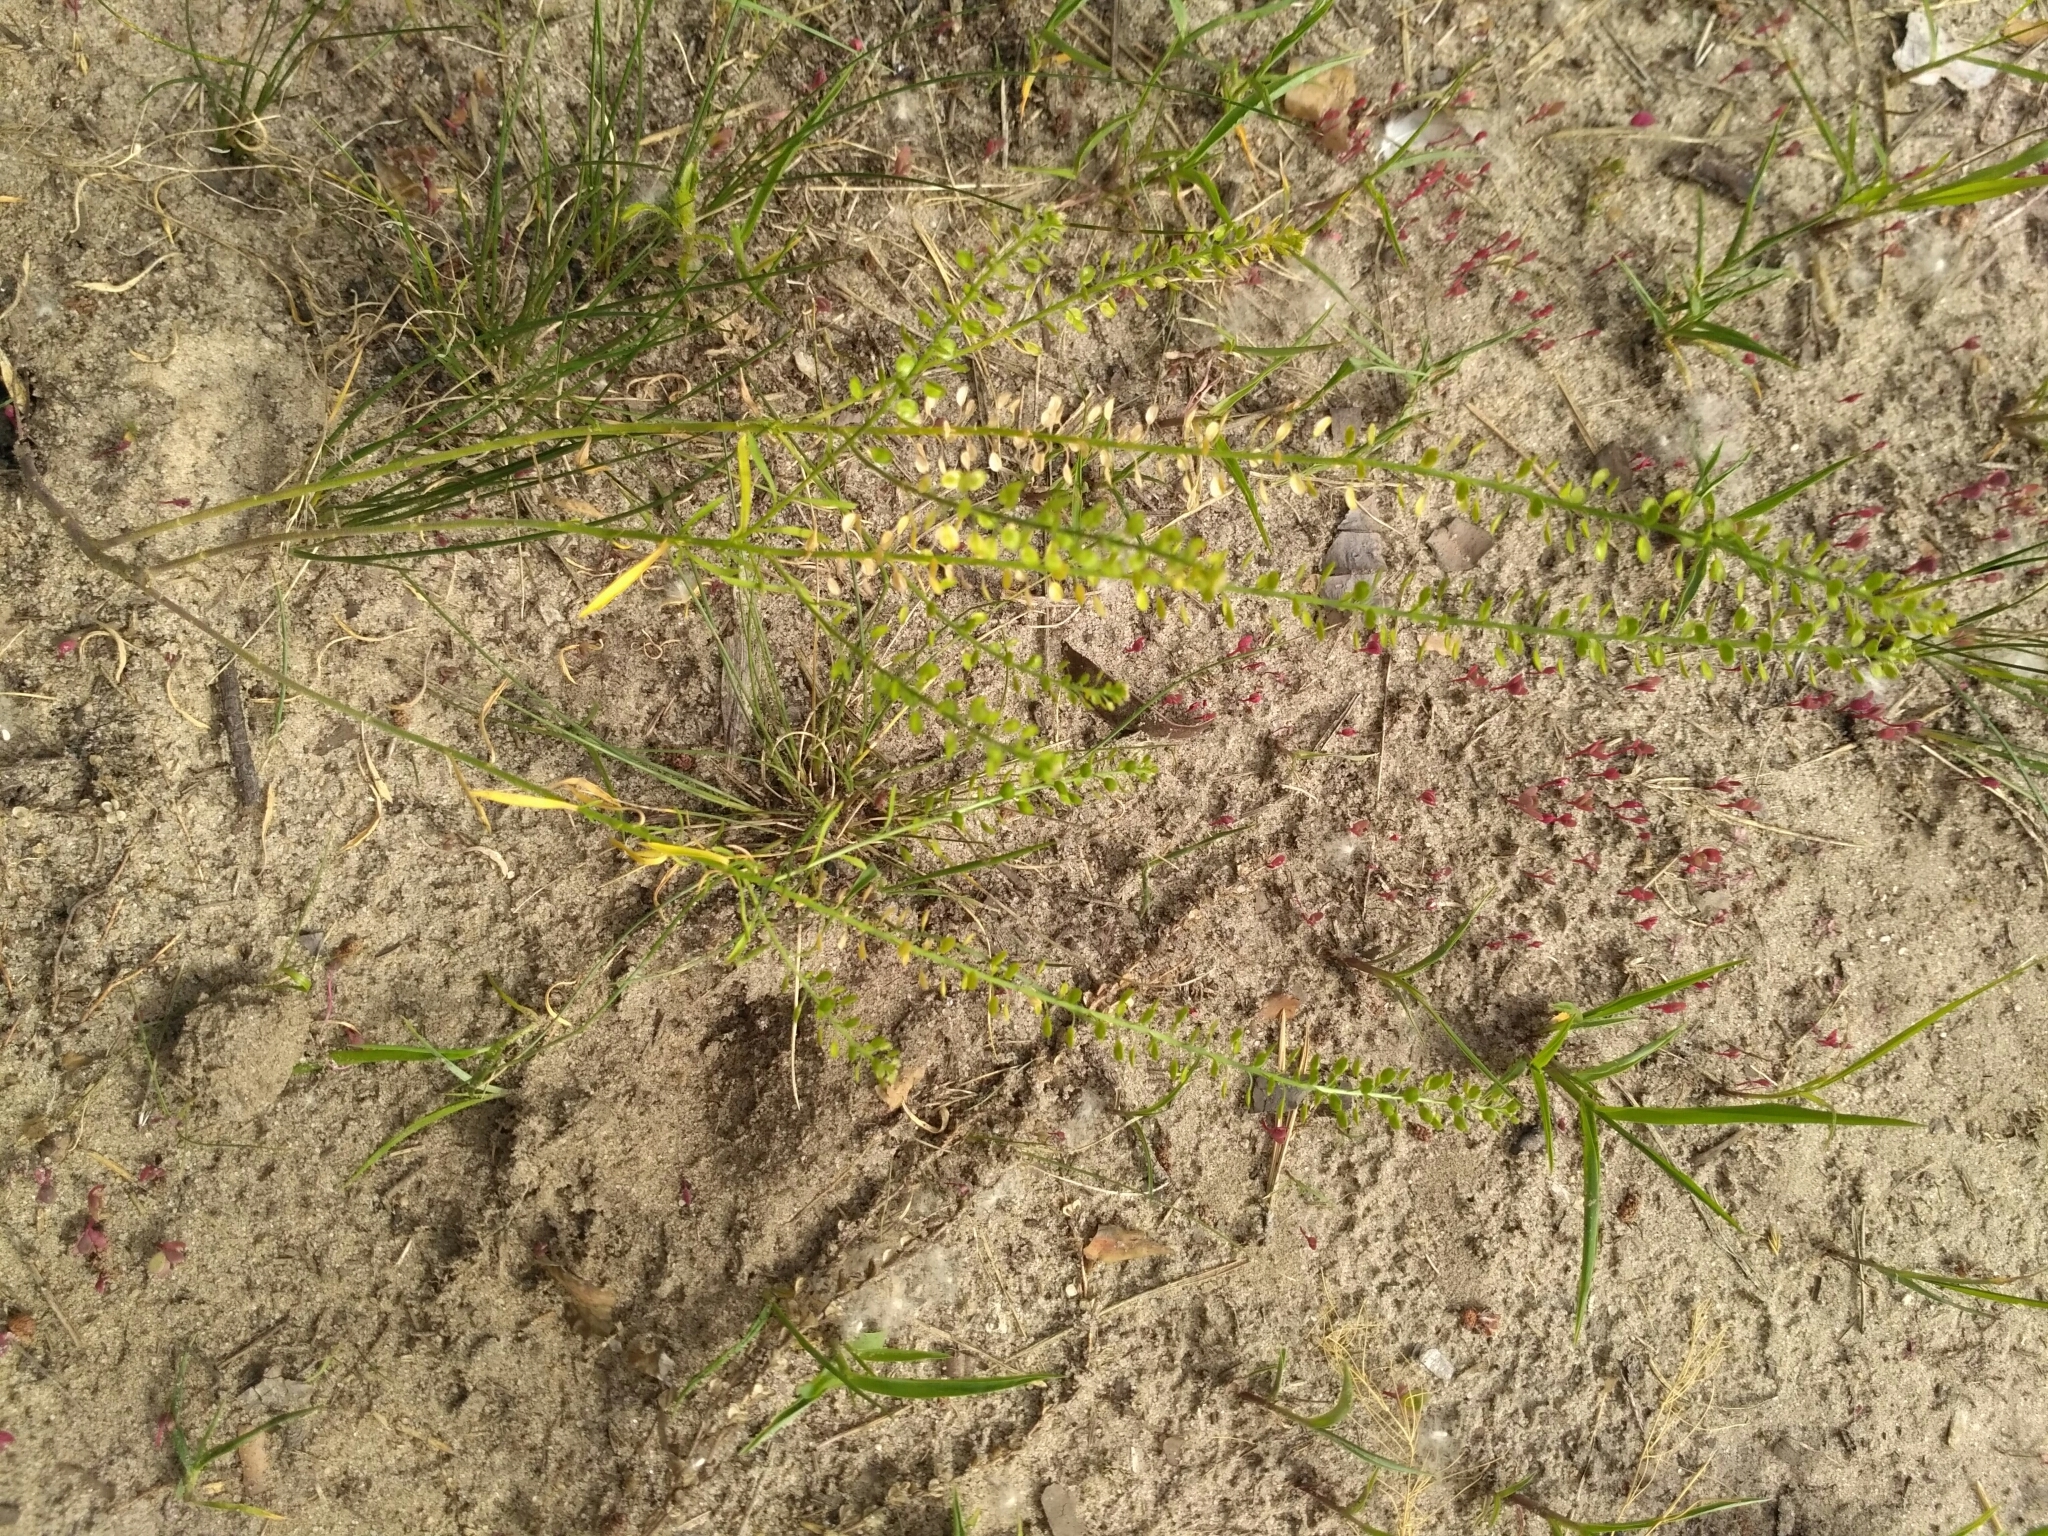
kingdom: Plantae
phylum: Tracheophyta
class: Magnoliopsida
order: Brassicales
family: Brassicaceae
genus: Lepidium
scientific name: Lepidium densiflorum
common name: Miner's pepperwort
